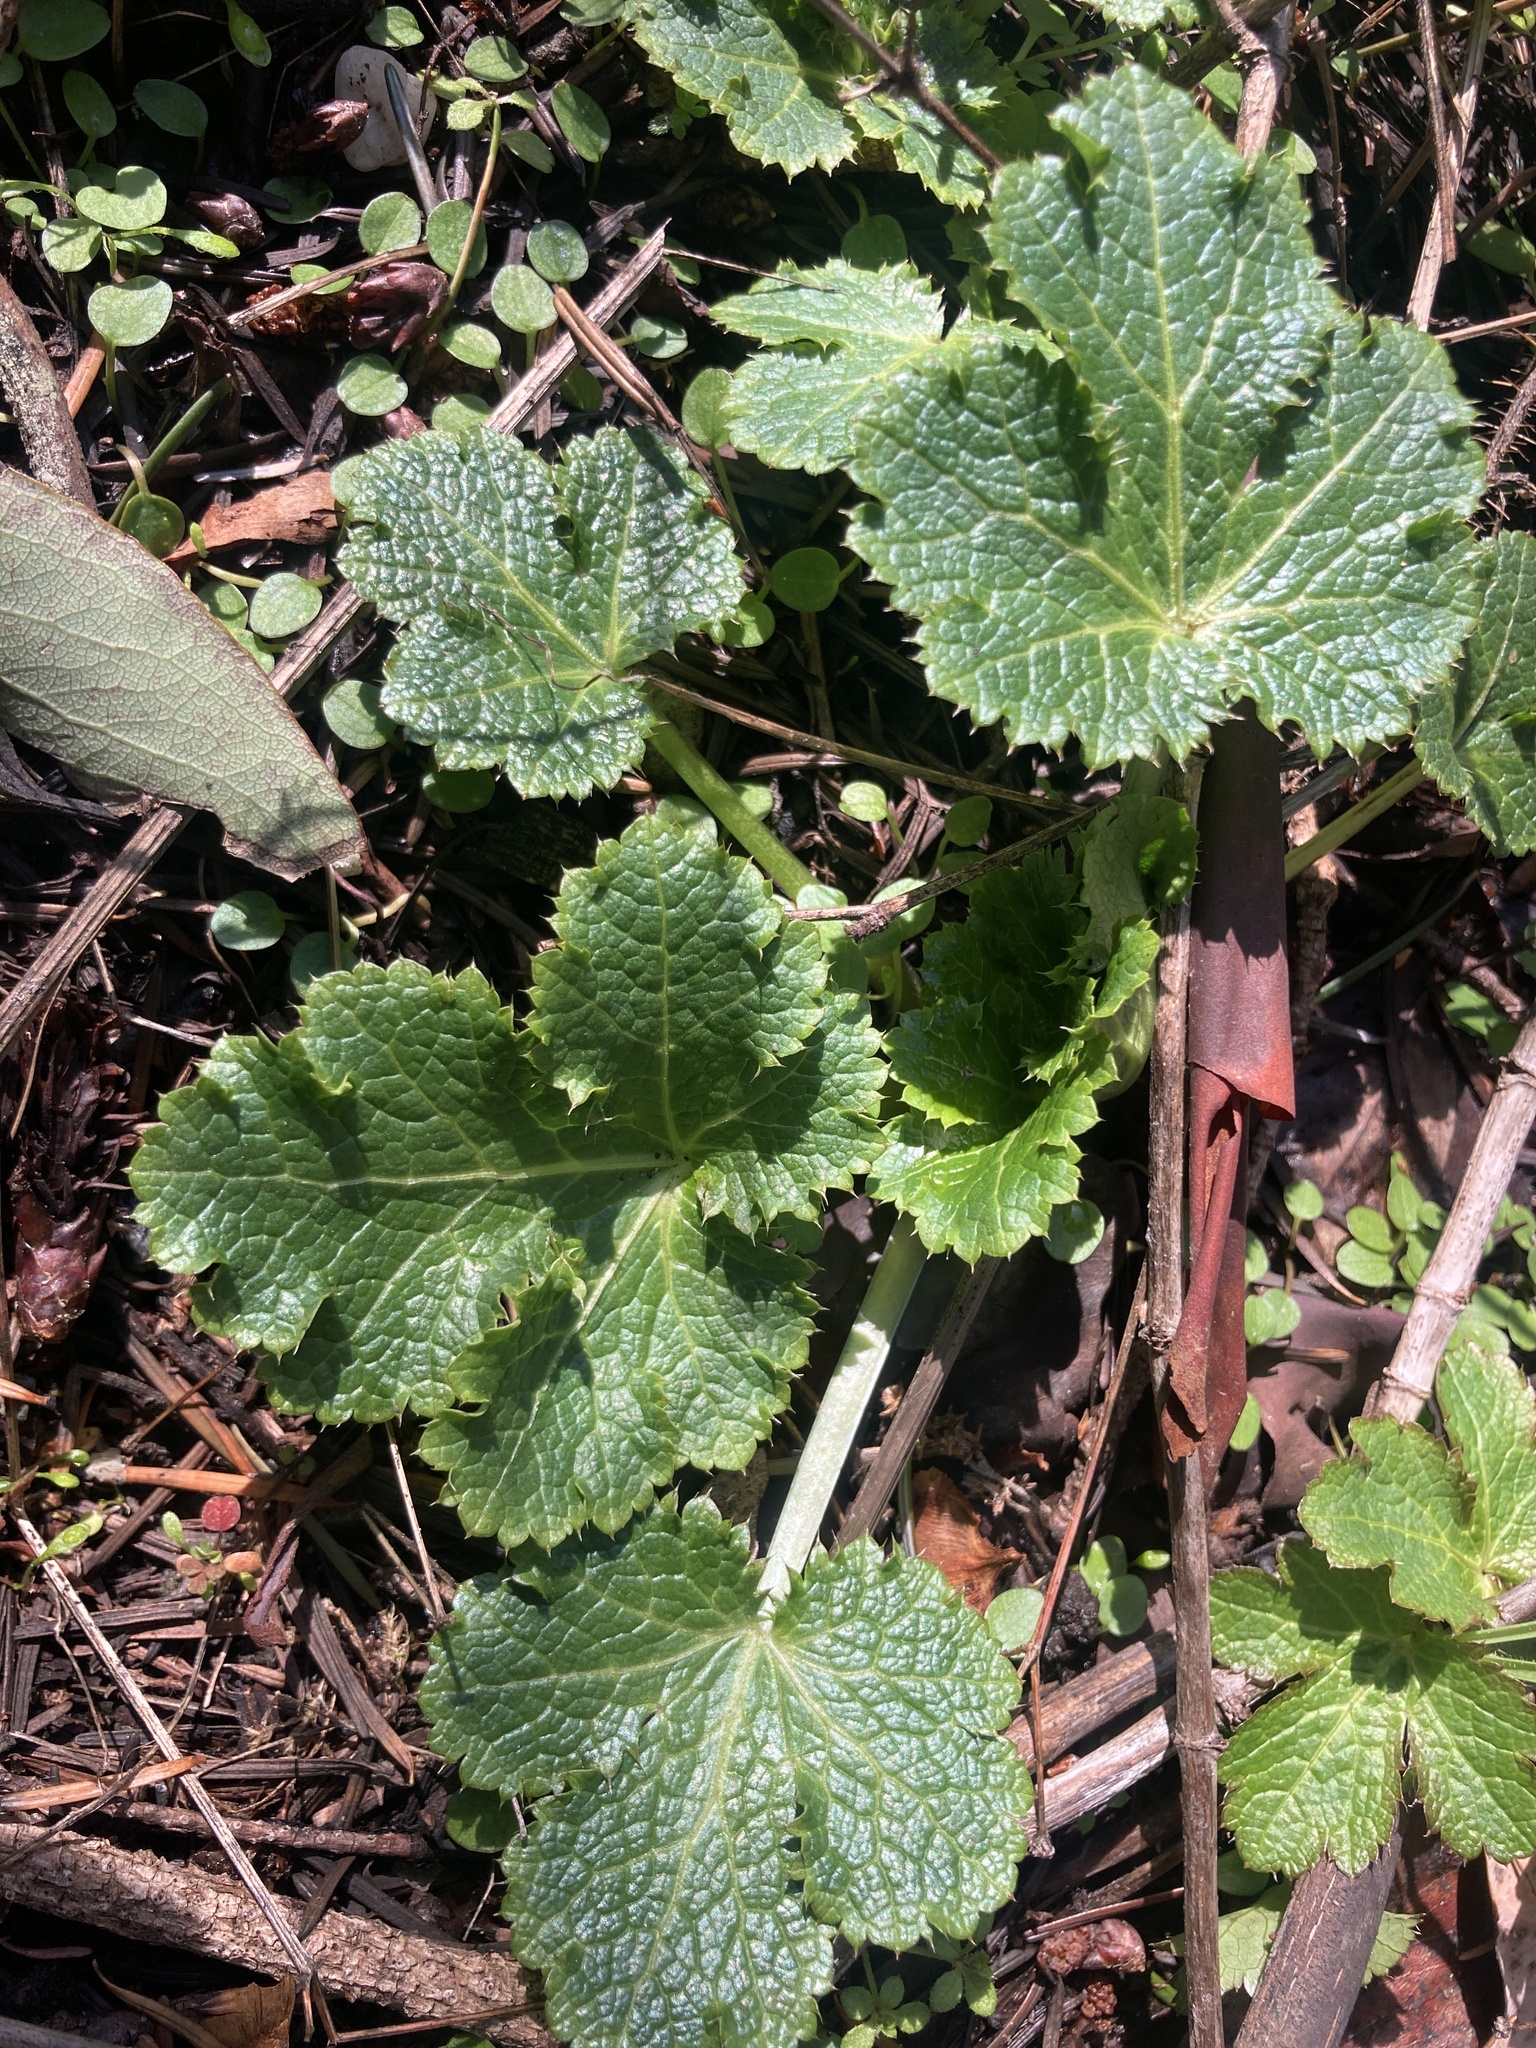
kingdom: Plantae
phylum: Tracheophyta
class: Magnoliopsida
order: Apiales
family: Apiaceae
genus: Sanicula
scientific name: Sanicula crassicaulis
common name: Western snakeroot
